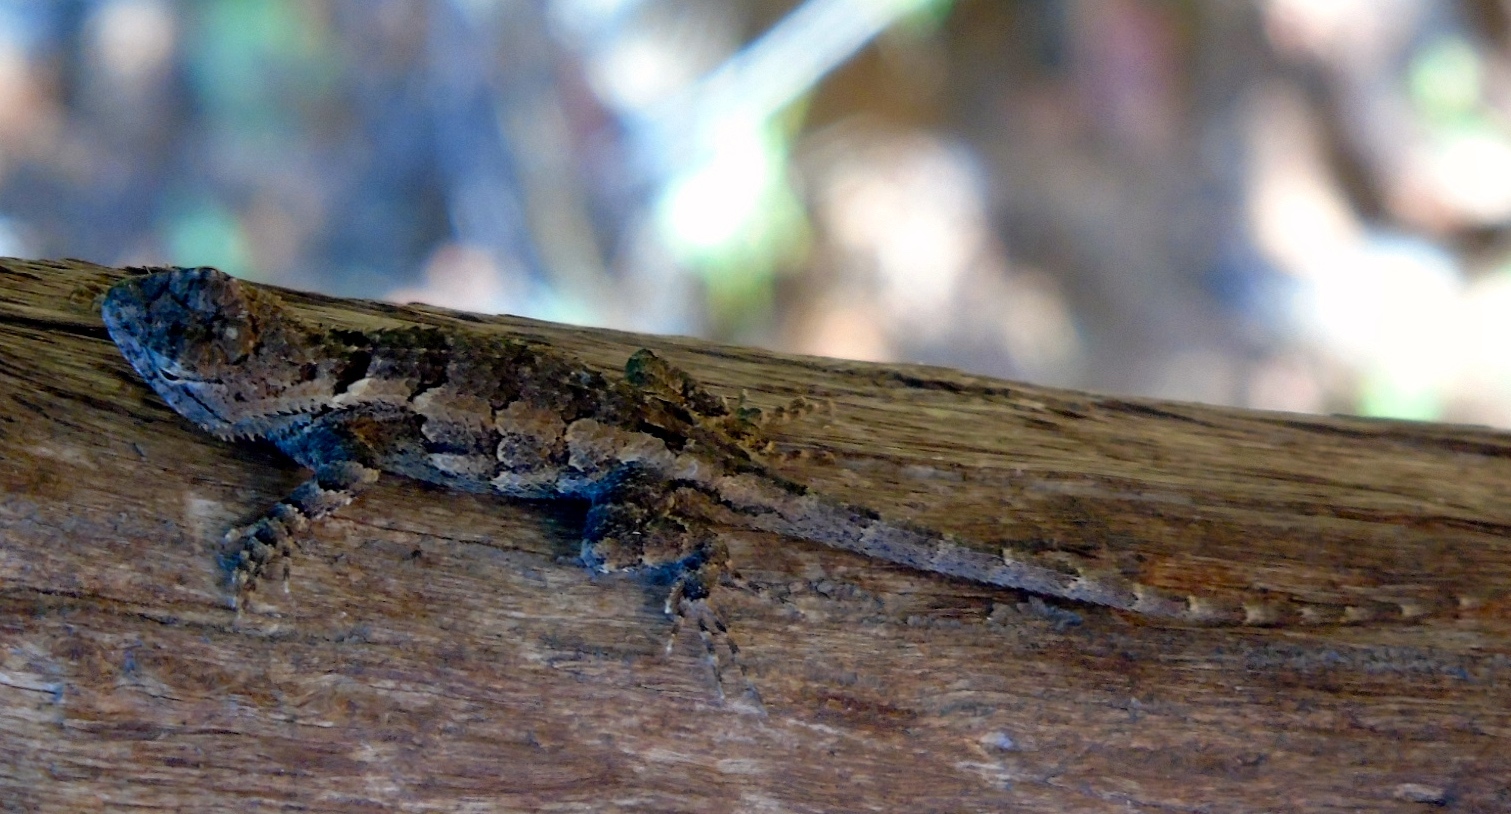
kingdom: Animalia
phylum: Chordata
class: Squamata
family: Phrynosomatidae
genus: Sceloporus
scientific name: Sceloporus clarkii
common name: Clark's spiny lizard
